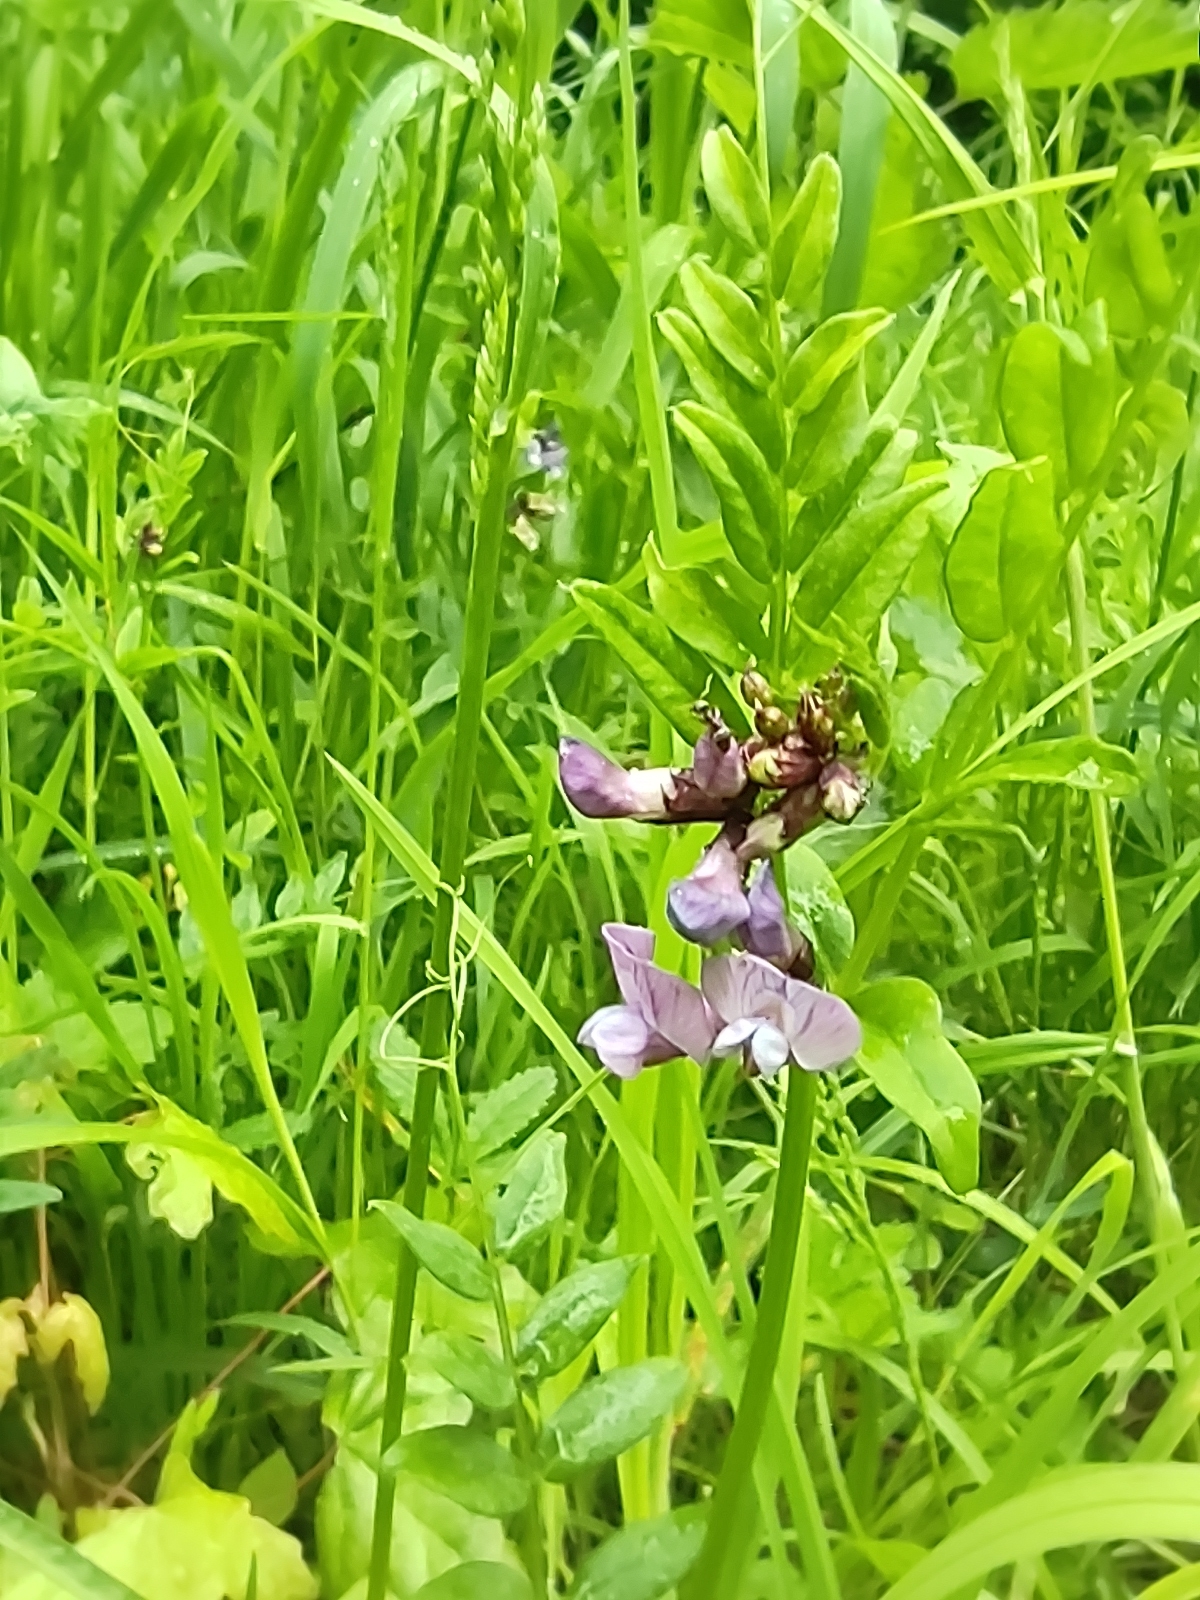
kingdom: Plantae
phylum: Tracheophyta
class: Magnoliopsida
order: Lamiales
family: Lamiaceae
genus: Lamium
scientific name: Lamium purpureum
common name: Red dead-nettle
